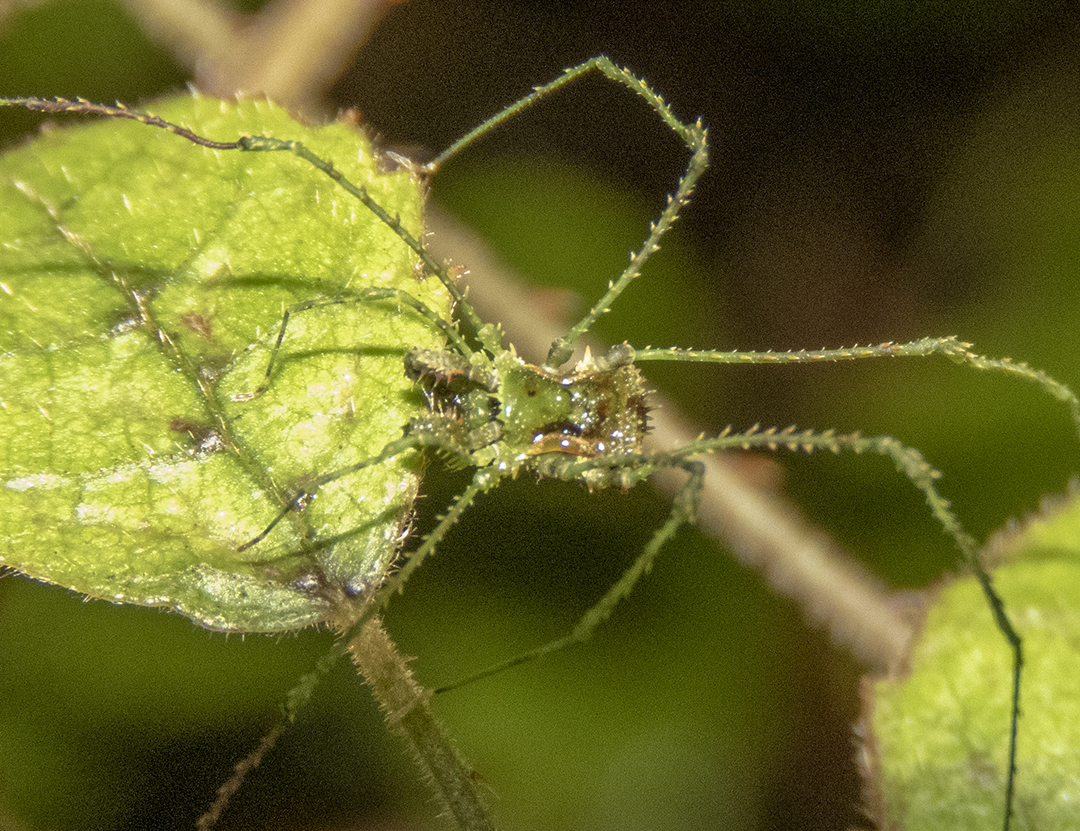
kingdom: Animalia
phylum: Arthropoda
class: Arachnida
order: Opiliones
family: Triaenonychidae
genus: Algidia
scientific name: Algidia viridata
